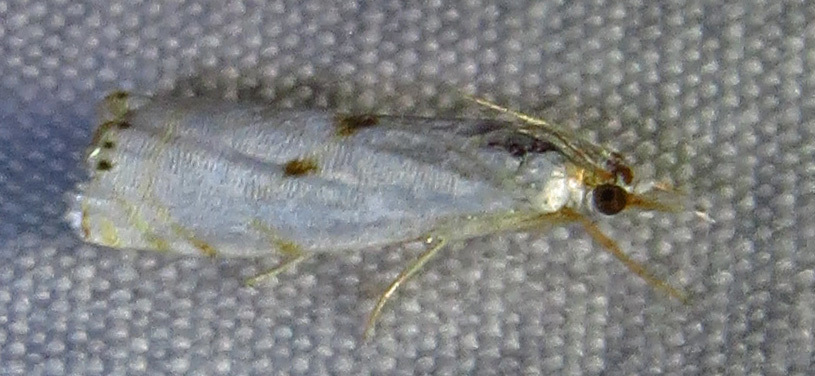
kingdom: Animalia
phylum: Arthropoda
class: Insecta
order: Lepidoptera
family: Crambidae
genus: Microcrambus
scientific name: Microcrambus biguttellus
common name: Gold-stripe grass-veneer moth
